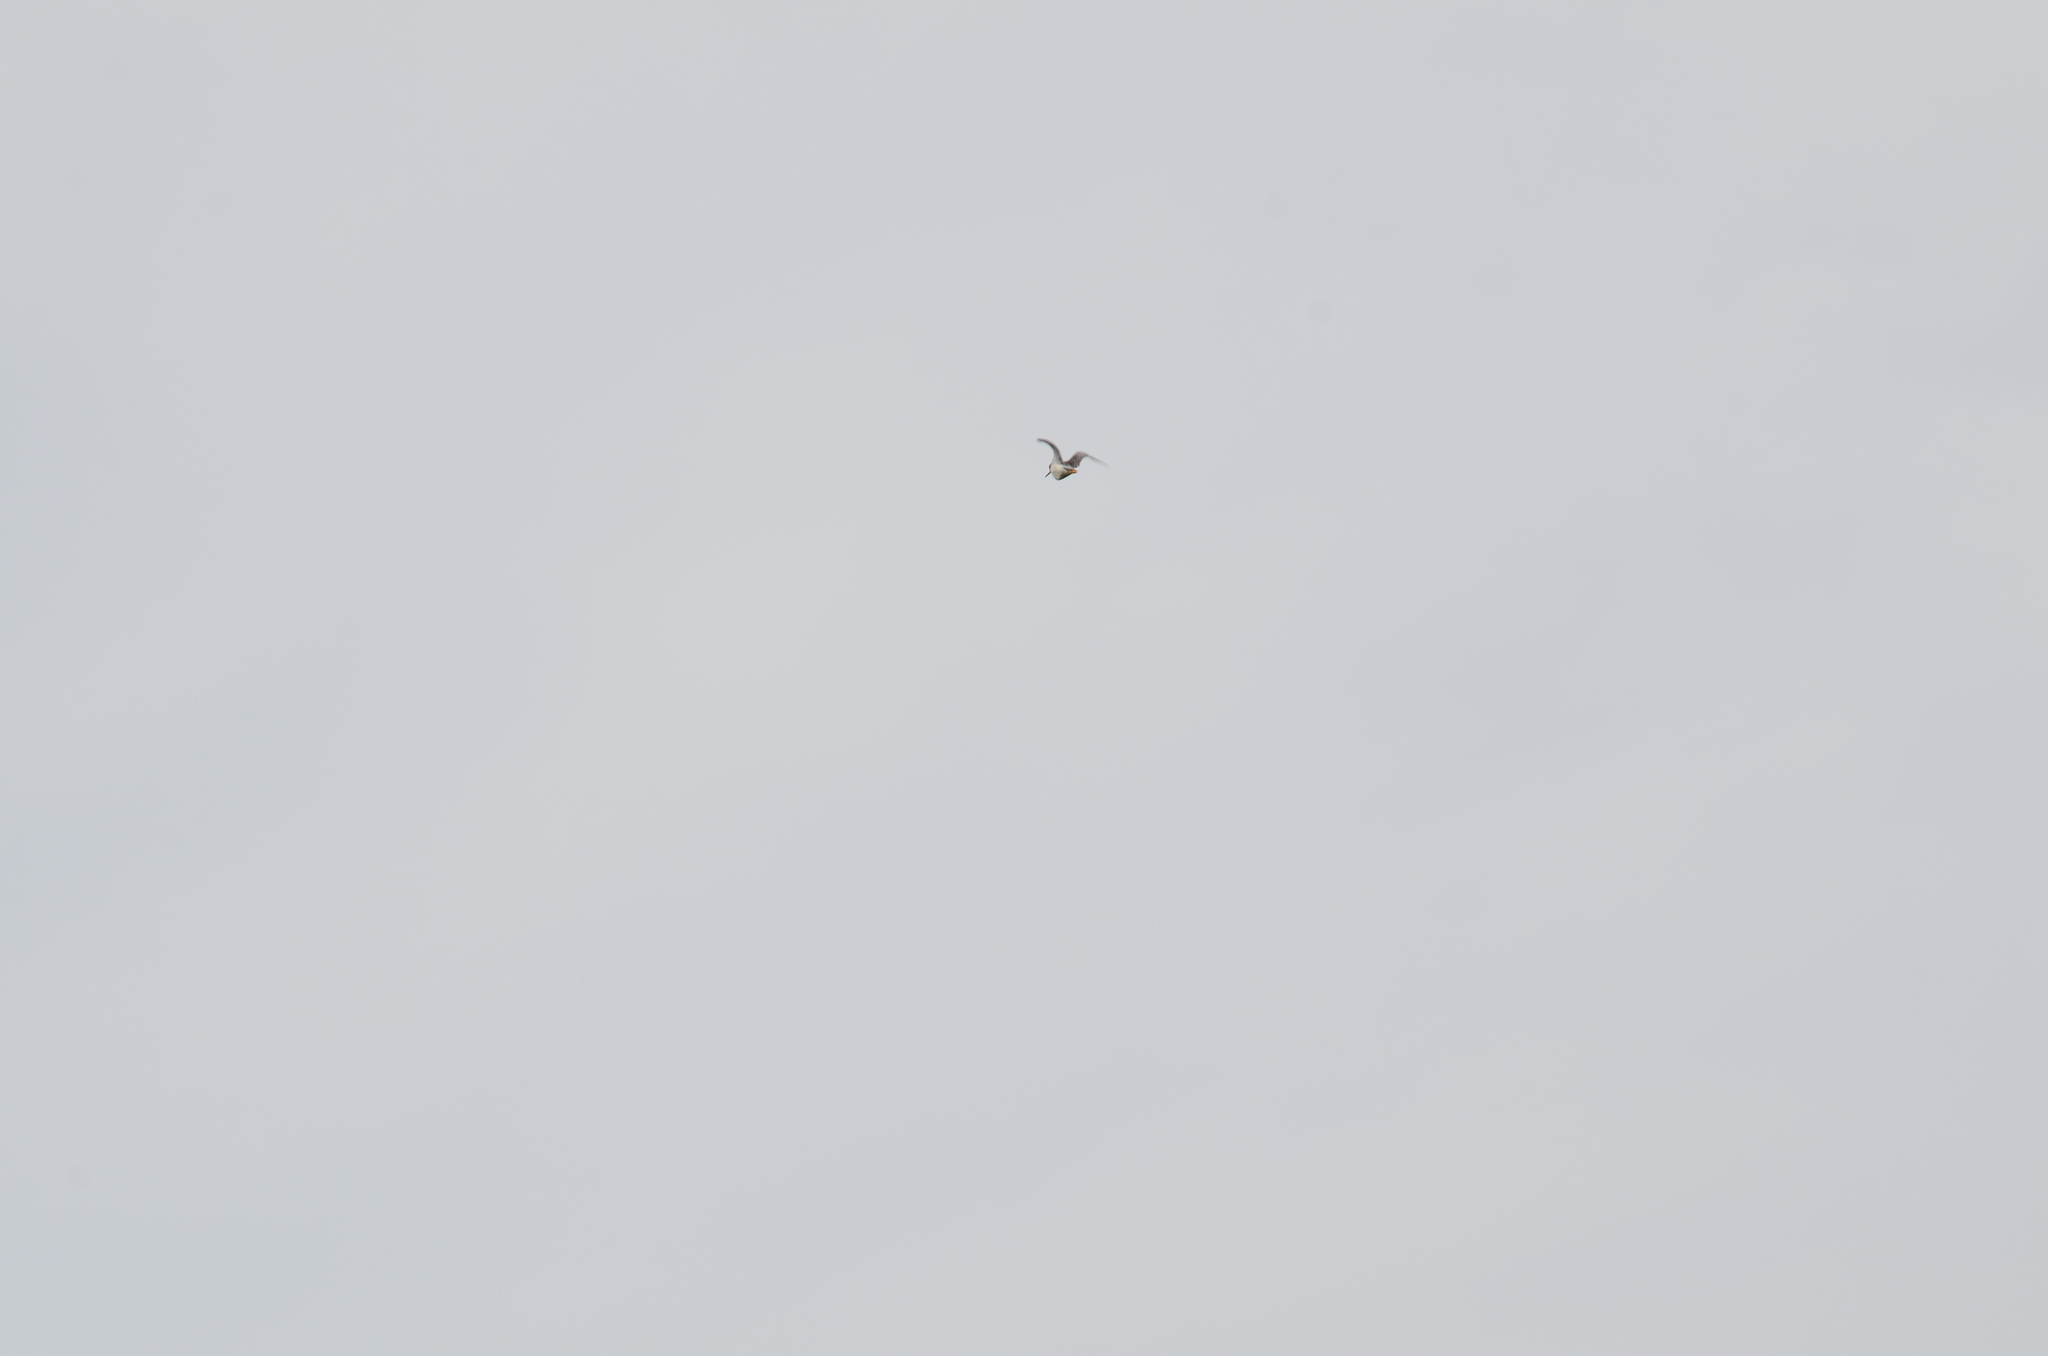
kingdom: Animalia
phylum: Chordata
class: Aves
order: Charadriiformes
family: Scolopacidae
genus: Tringa
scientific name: Tringa
